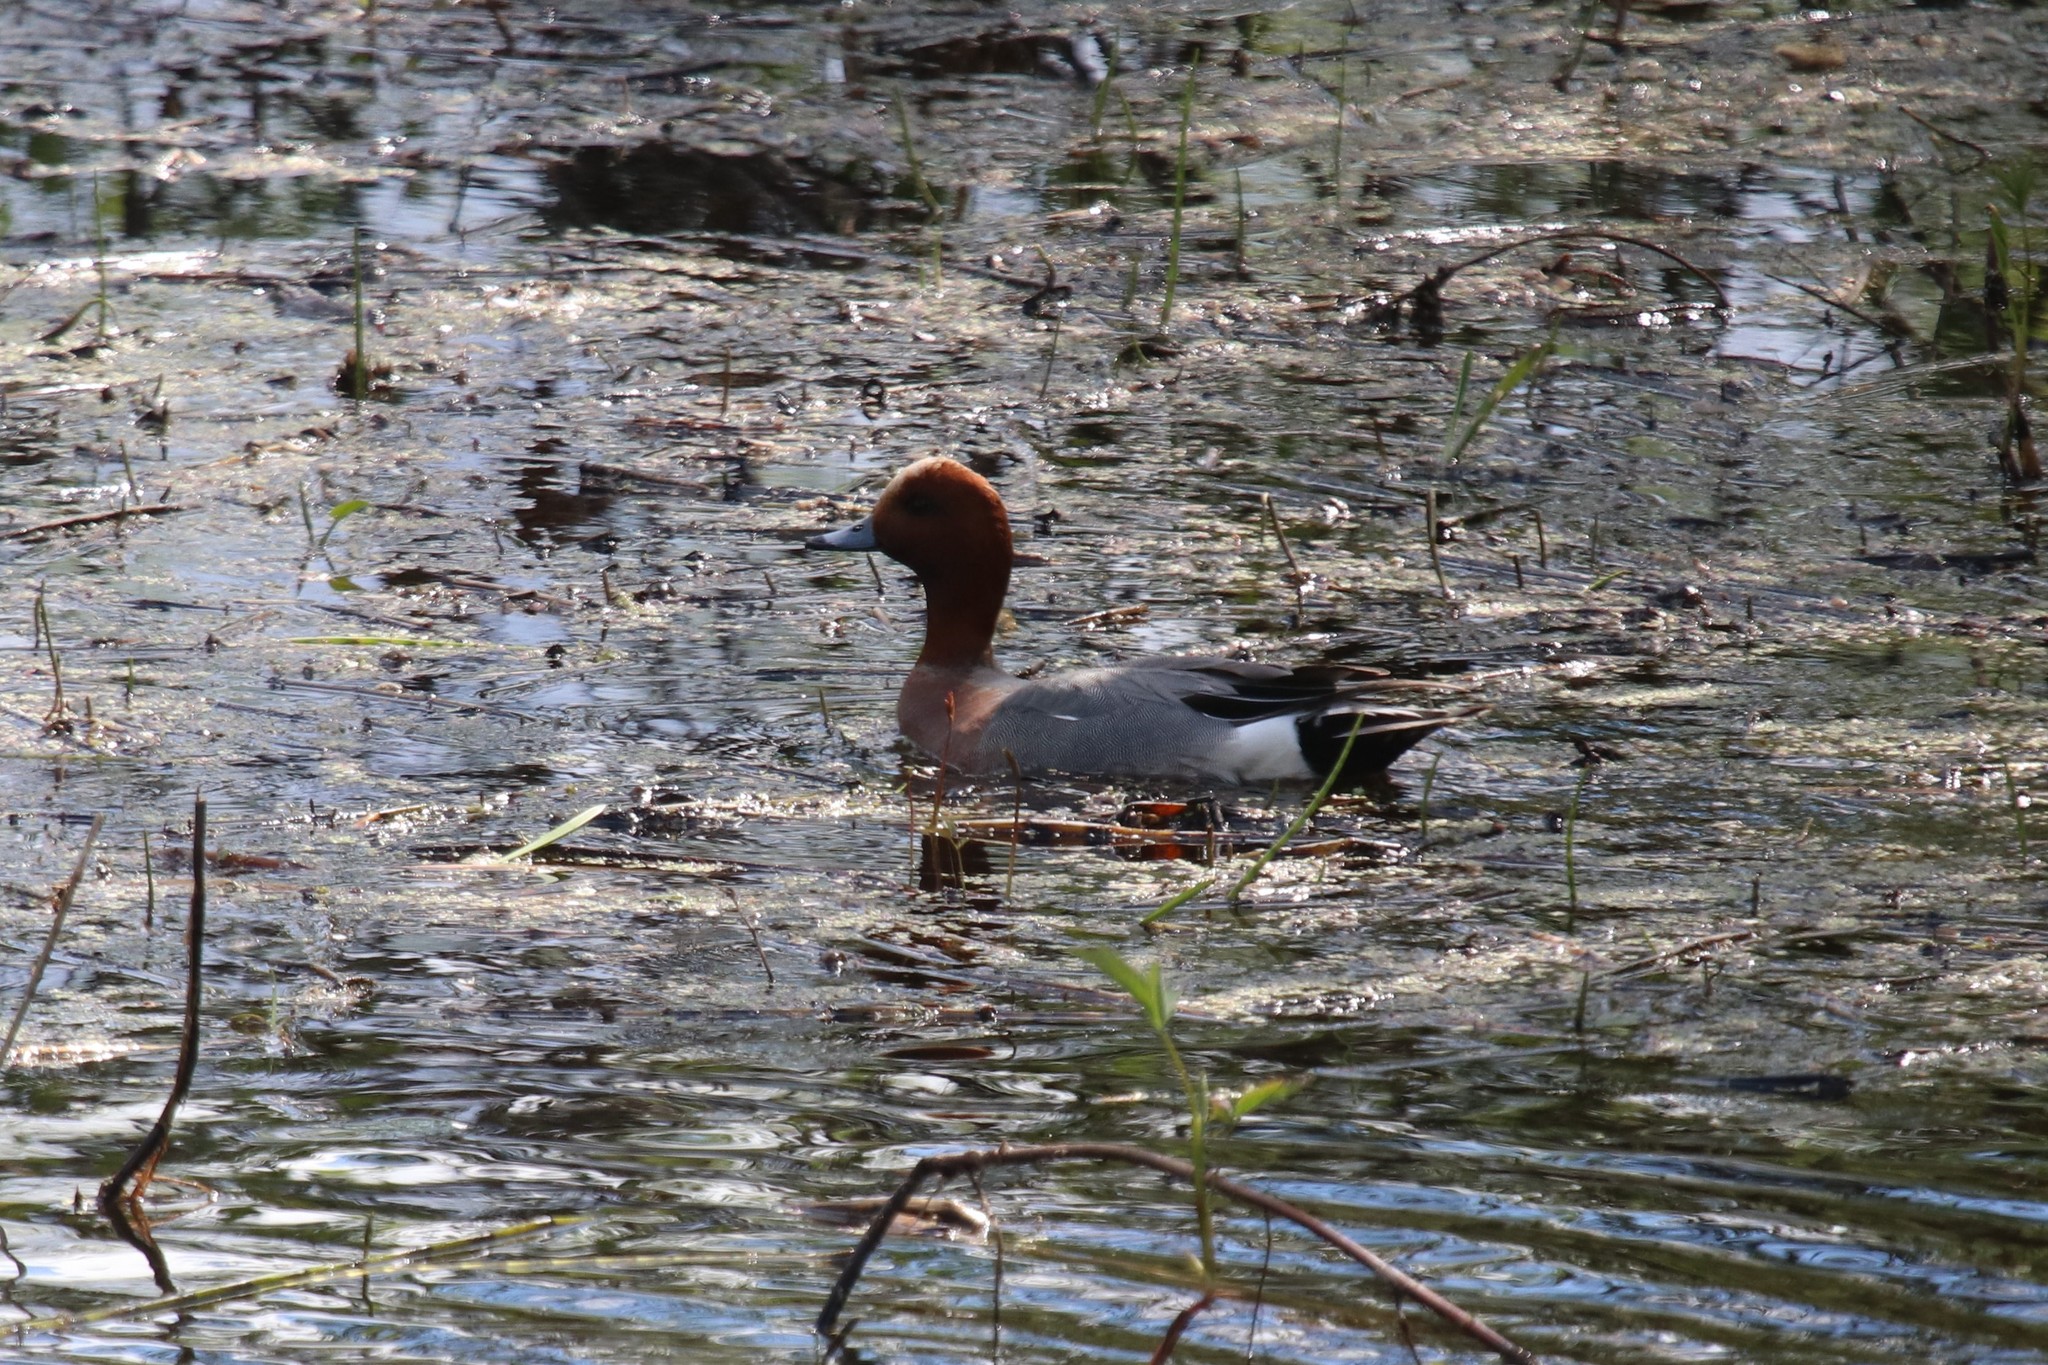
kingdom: Animalia
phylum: Chordata
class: Aves
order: Anseriformes
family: Anatidae
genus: Mareca
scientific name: Mareca penelope
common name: Eurasian wigeon
